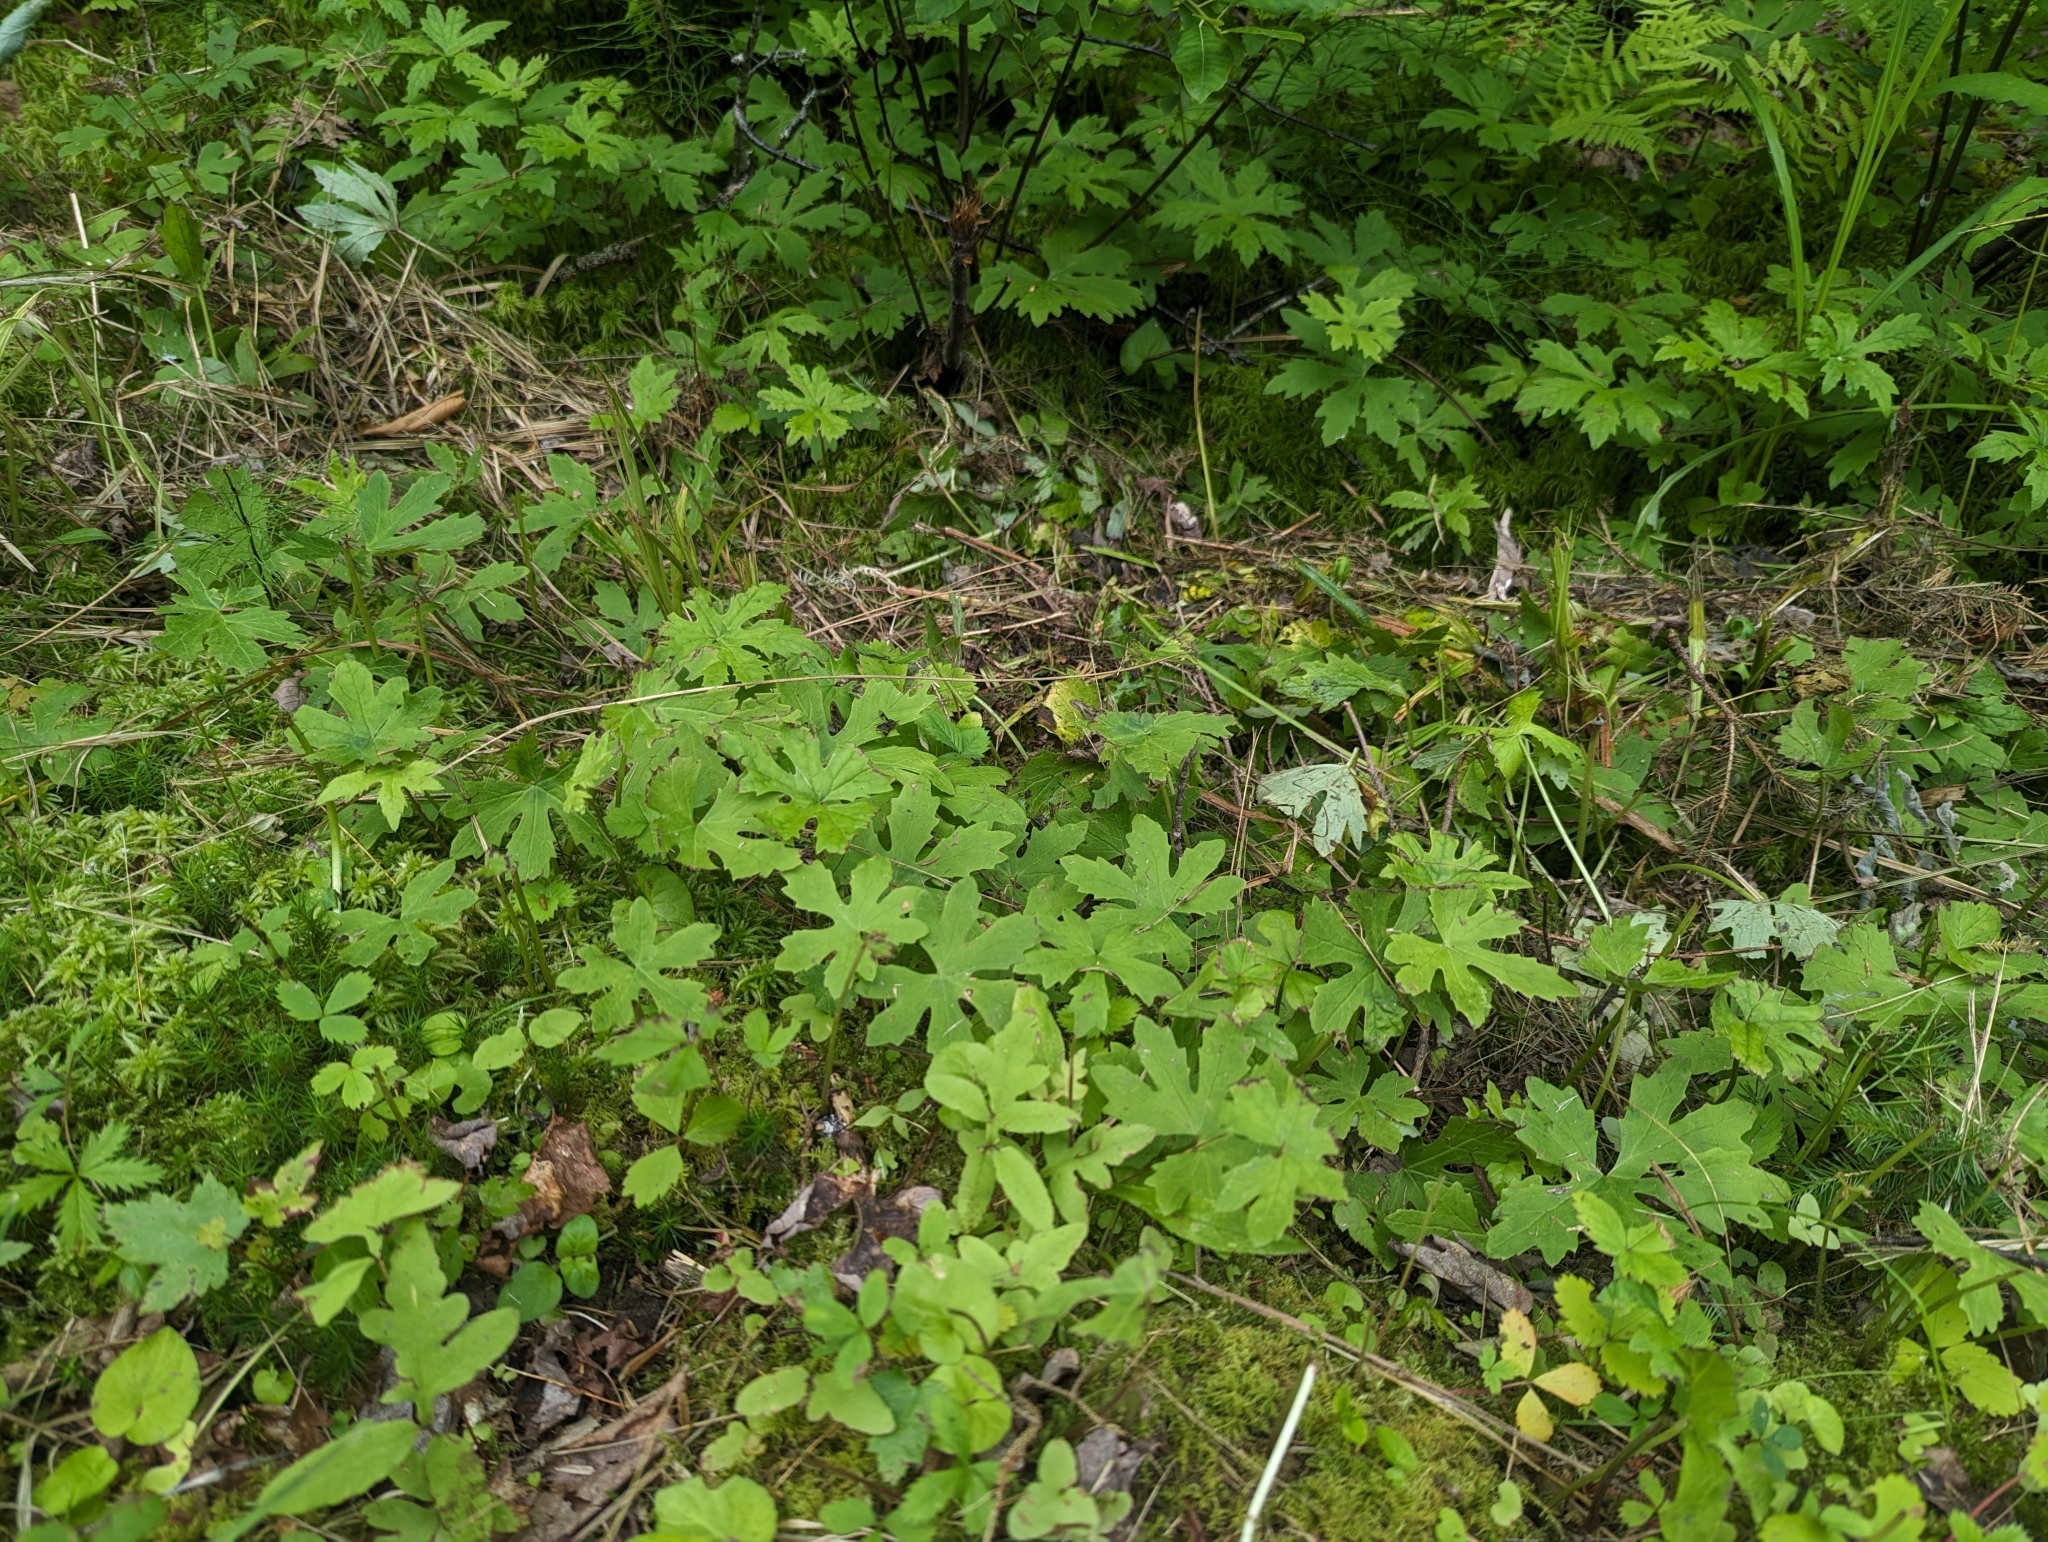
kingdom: Plantae
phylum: Tracheophyta
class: Magnoliopsida
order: Asterales
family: Asteraceae
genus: Petasites
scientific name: Petasites frigidus
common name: Arctic butterbur
